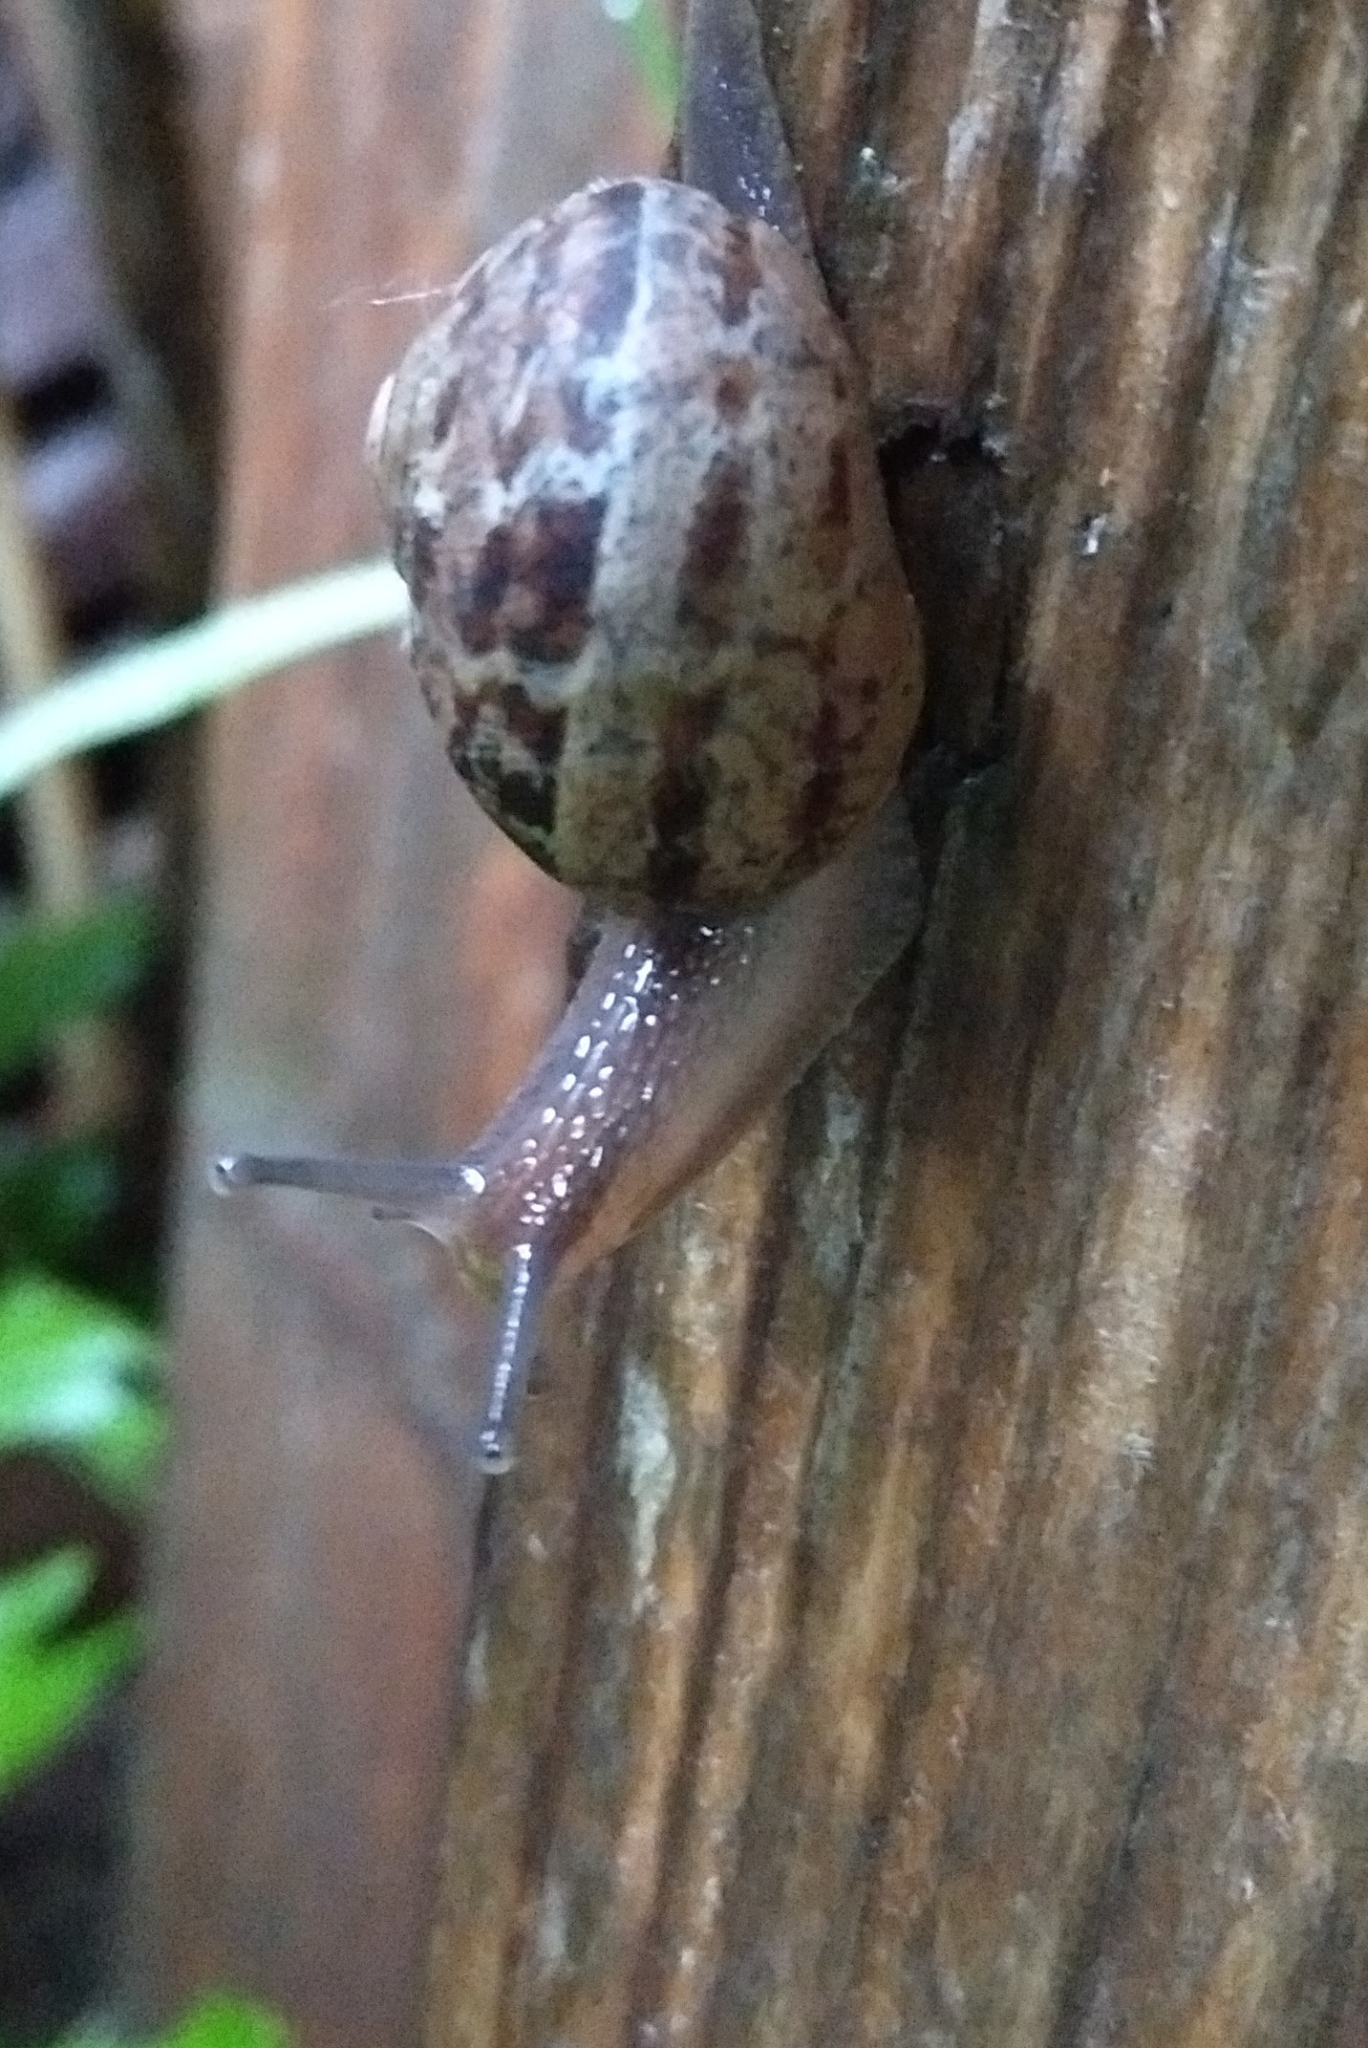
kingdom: Animalia
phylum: Mollusca
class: Gastropoda
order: Stylommatophora
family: Helicidae
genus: Cornu
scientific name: Cornu aspersum
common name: Brown garden snail
